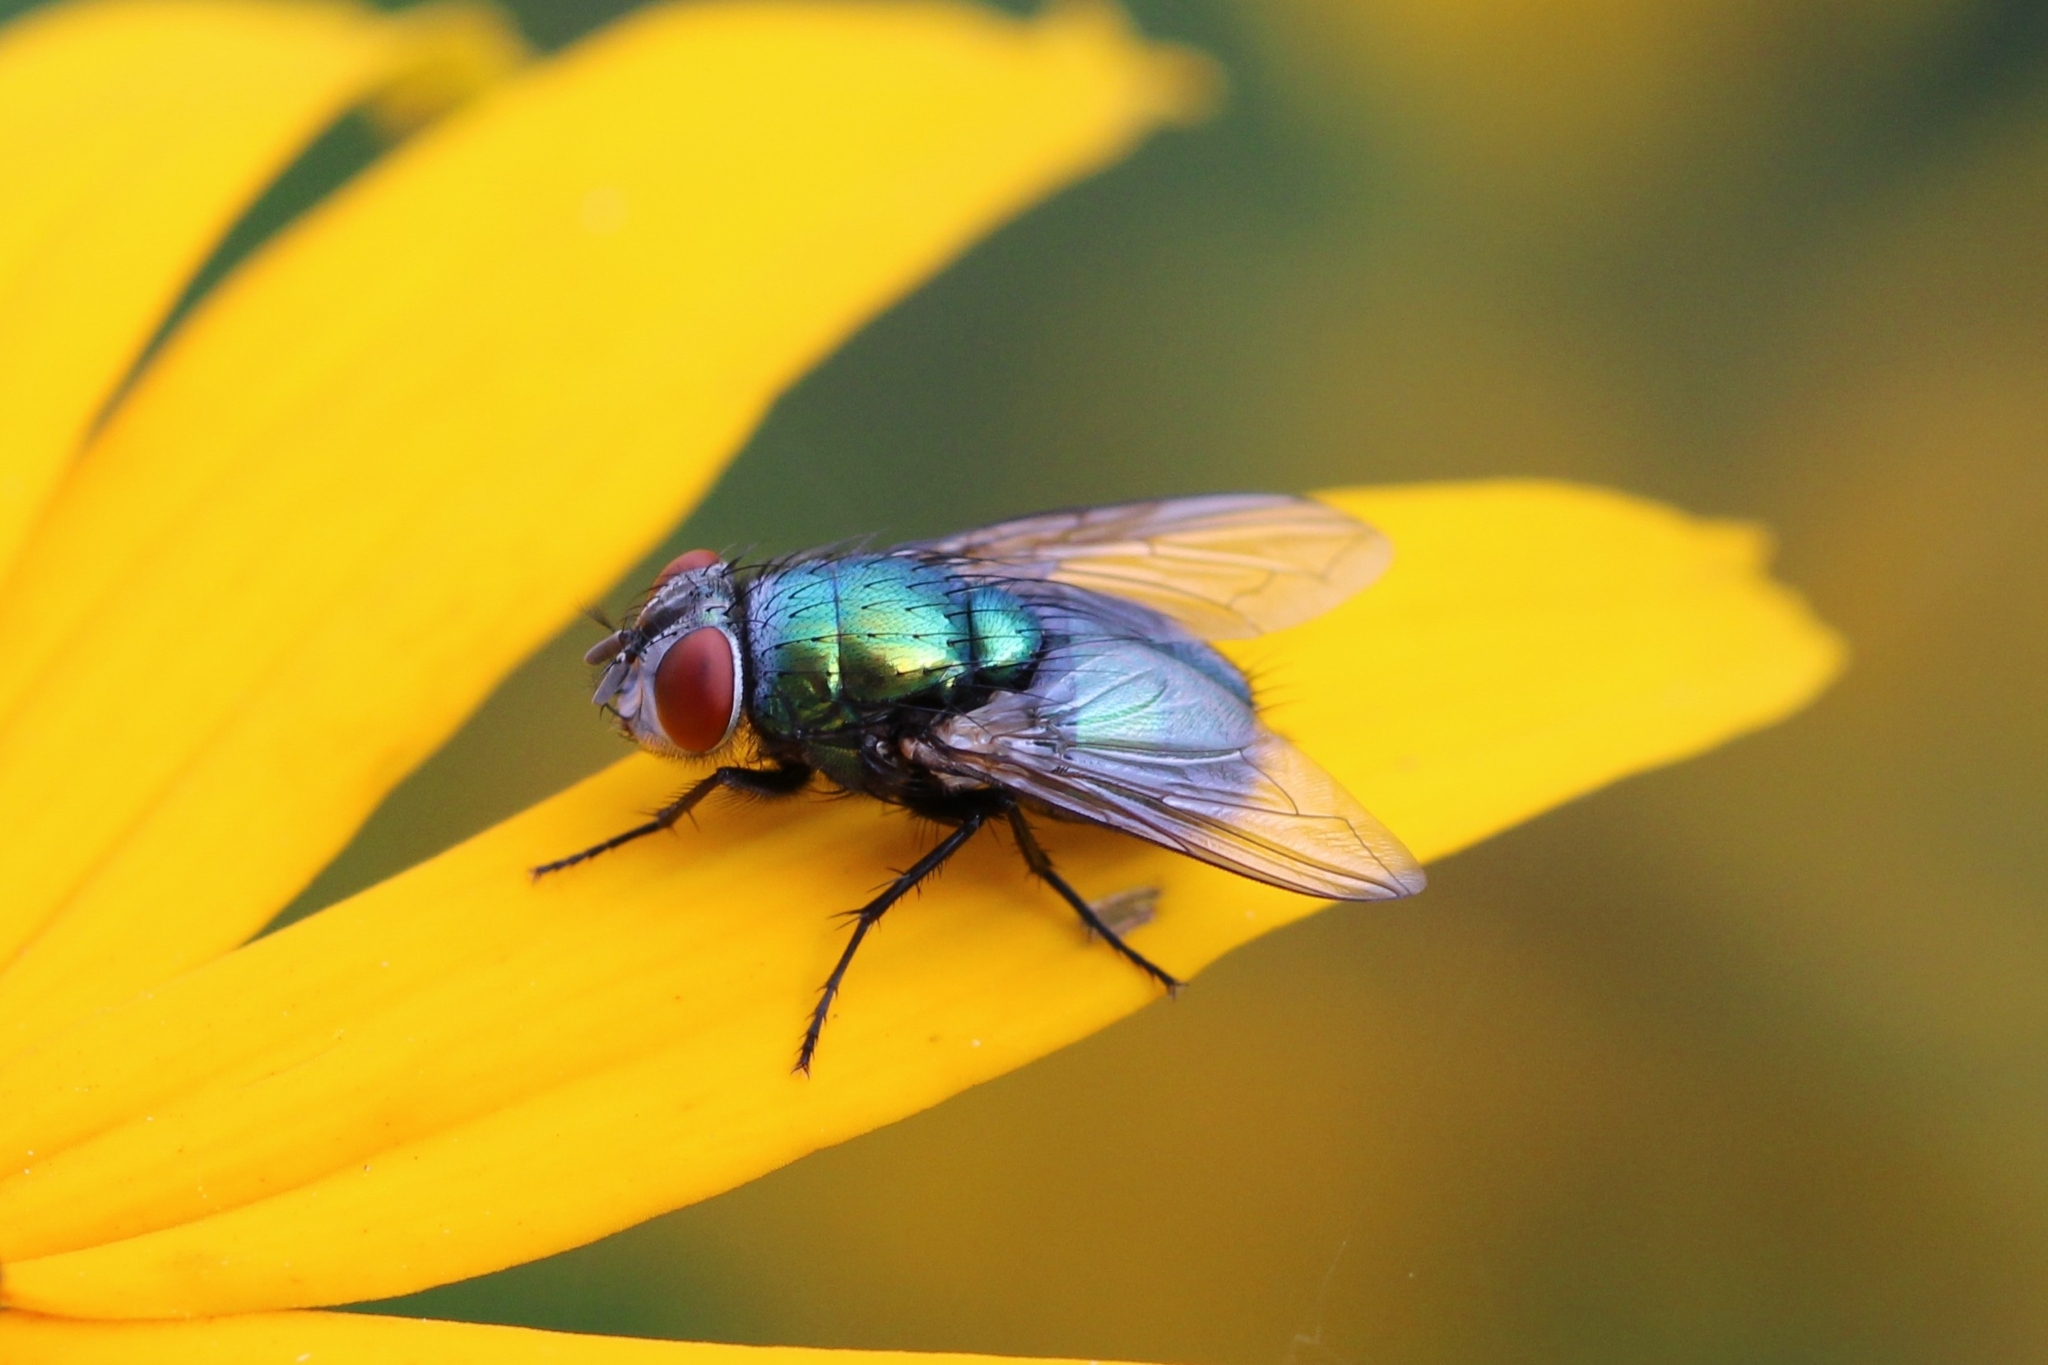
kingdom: Animalia
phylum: Arthropoda
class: Insecta
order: Diptera
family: Calliphoridae
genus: Lucilia
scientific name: Lucilia sericata
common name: Blow fly
